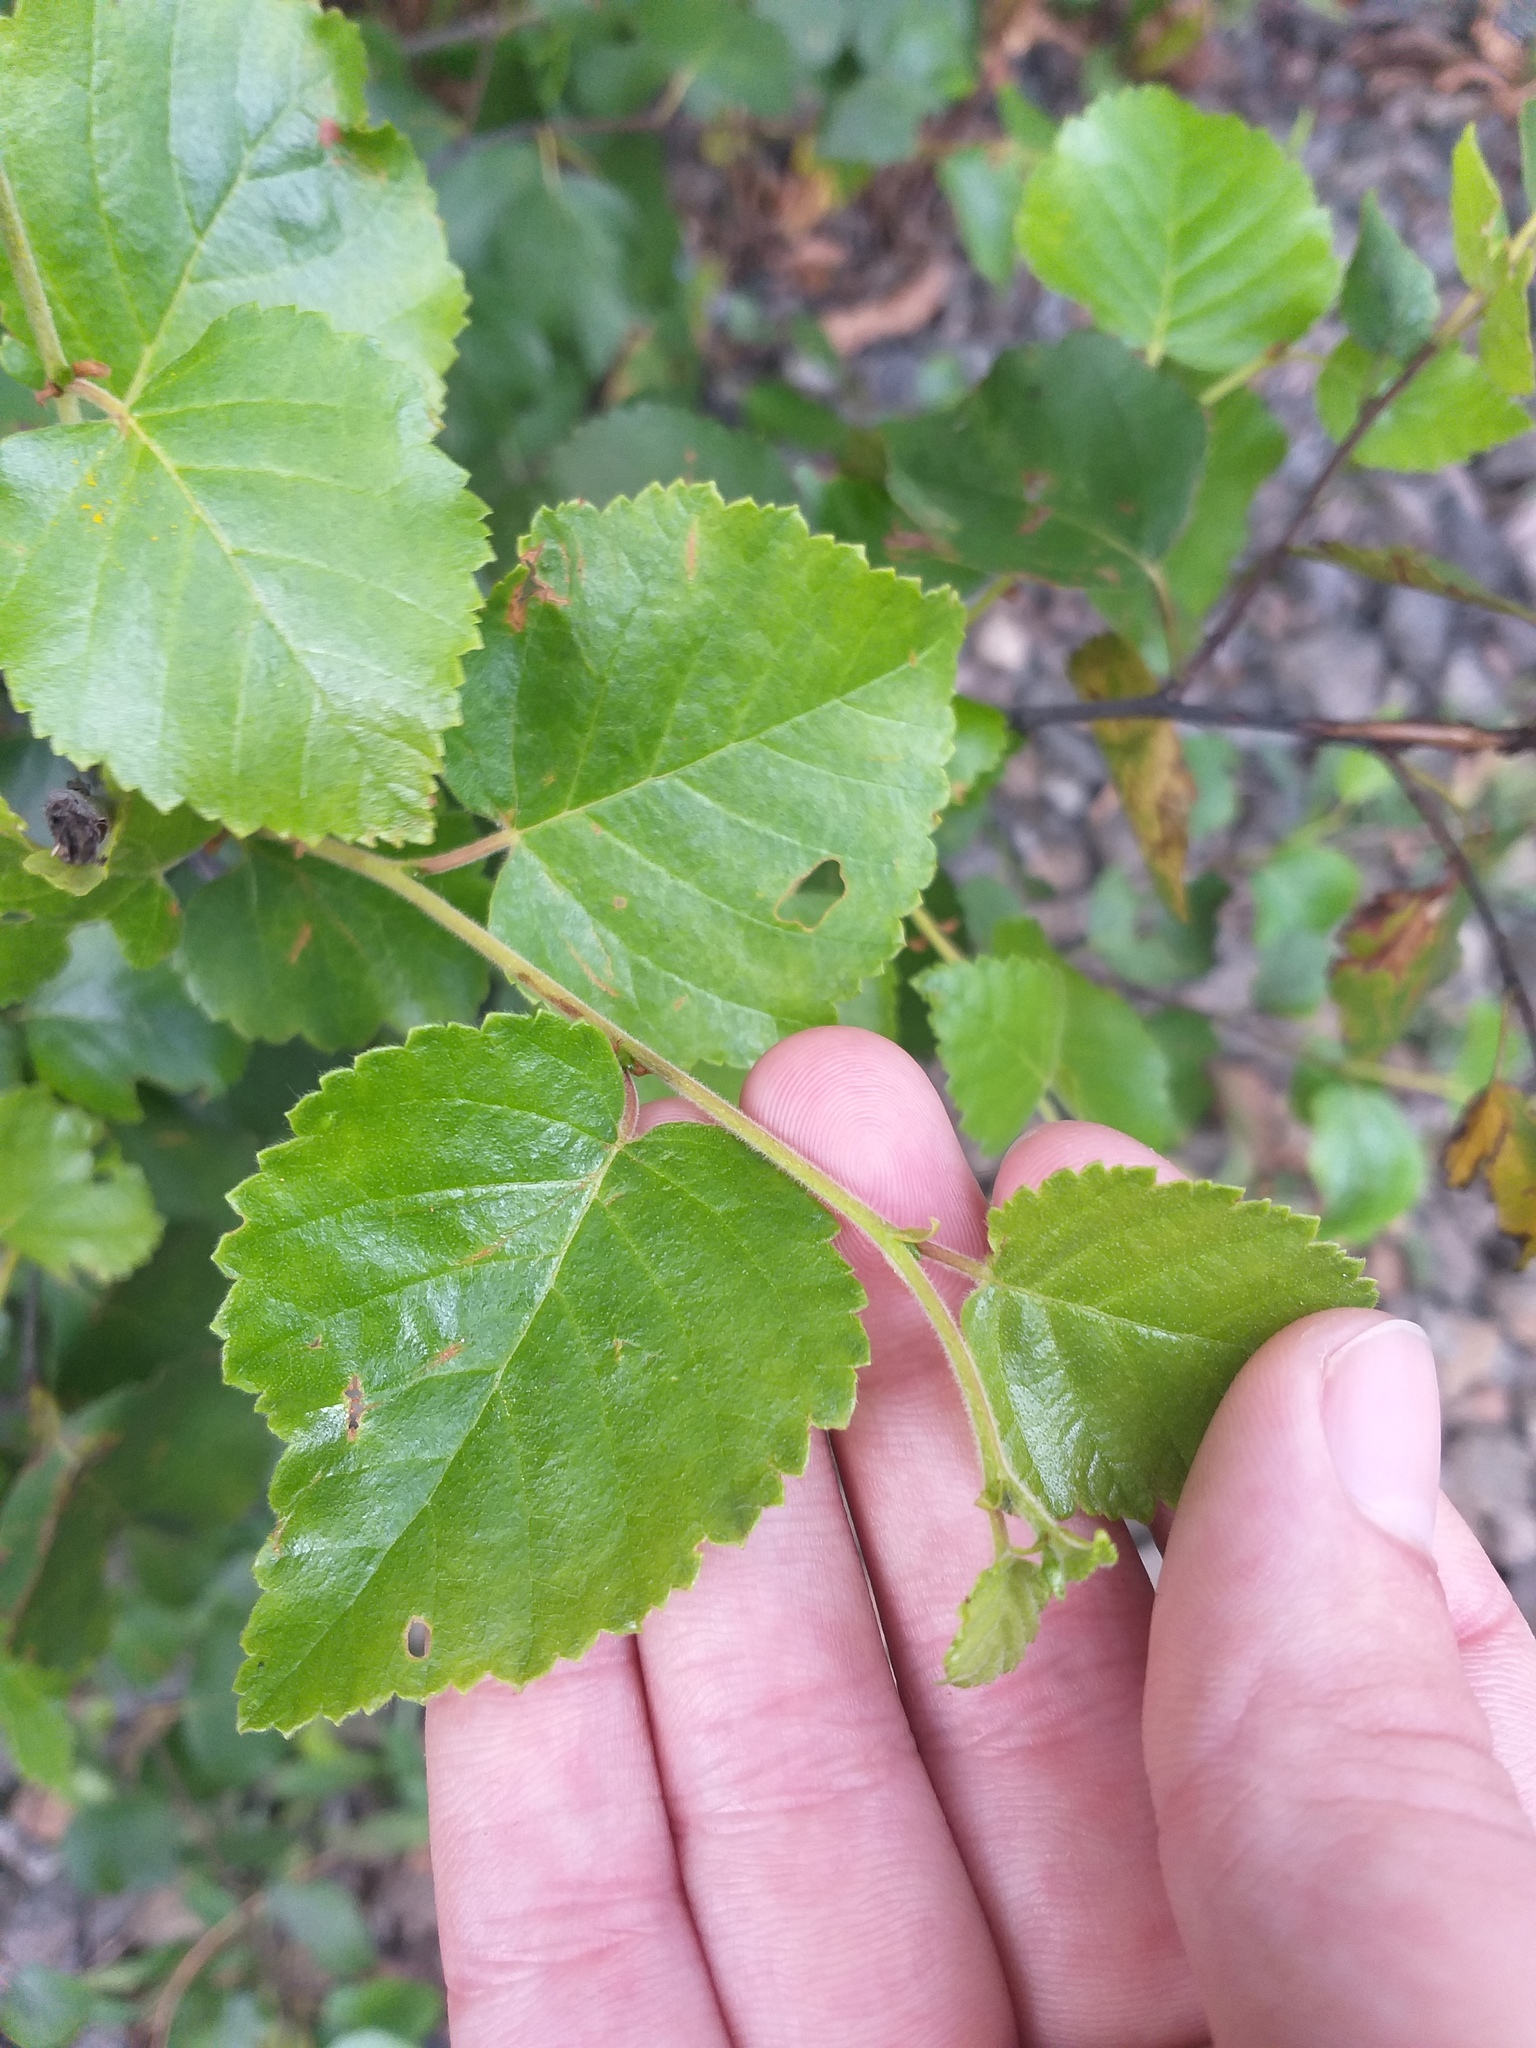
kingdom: Plantae
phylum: Tracheophyta
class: Magnoliopsida
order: Fagales
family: Betulaceae
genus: Betula
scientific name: Betula pubescens
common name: Downy birch
